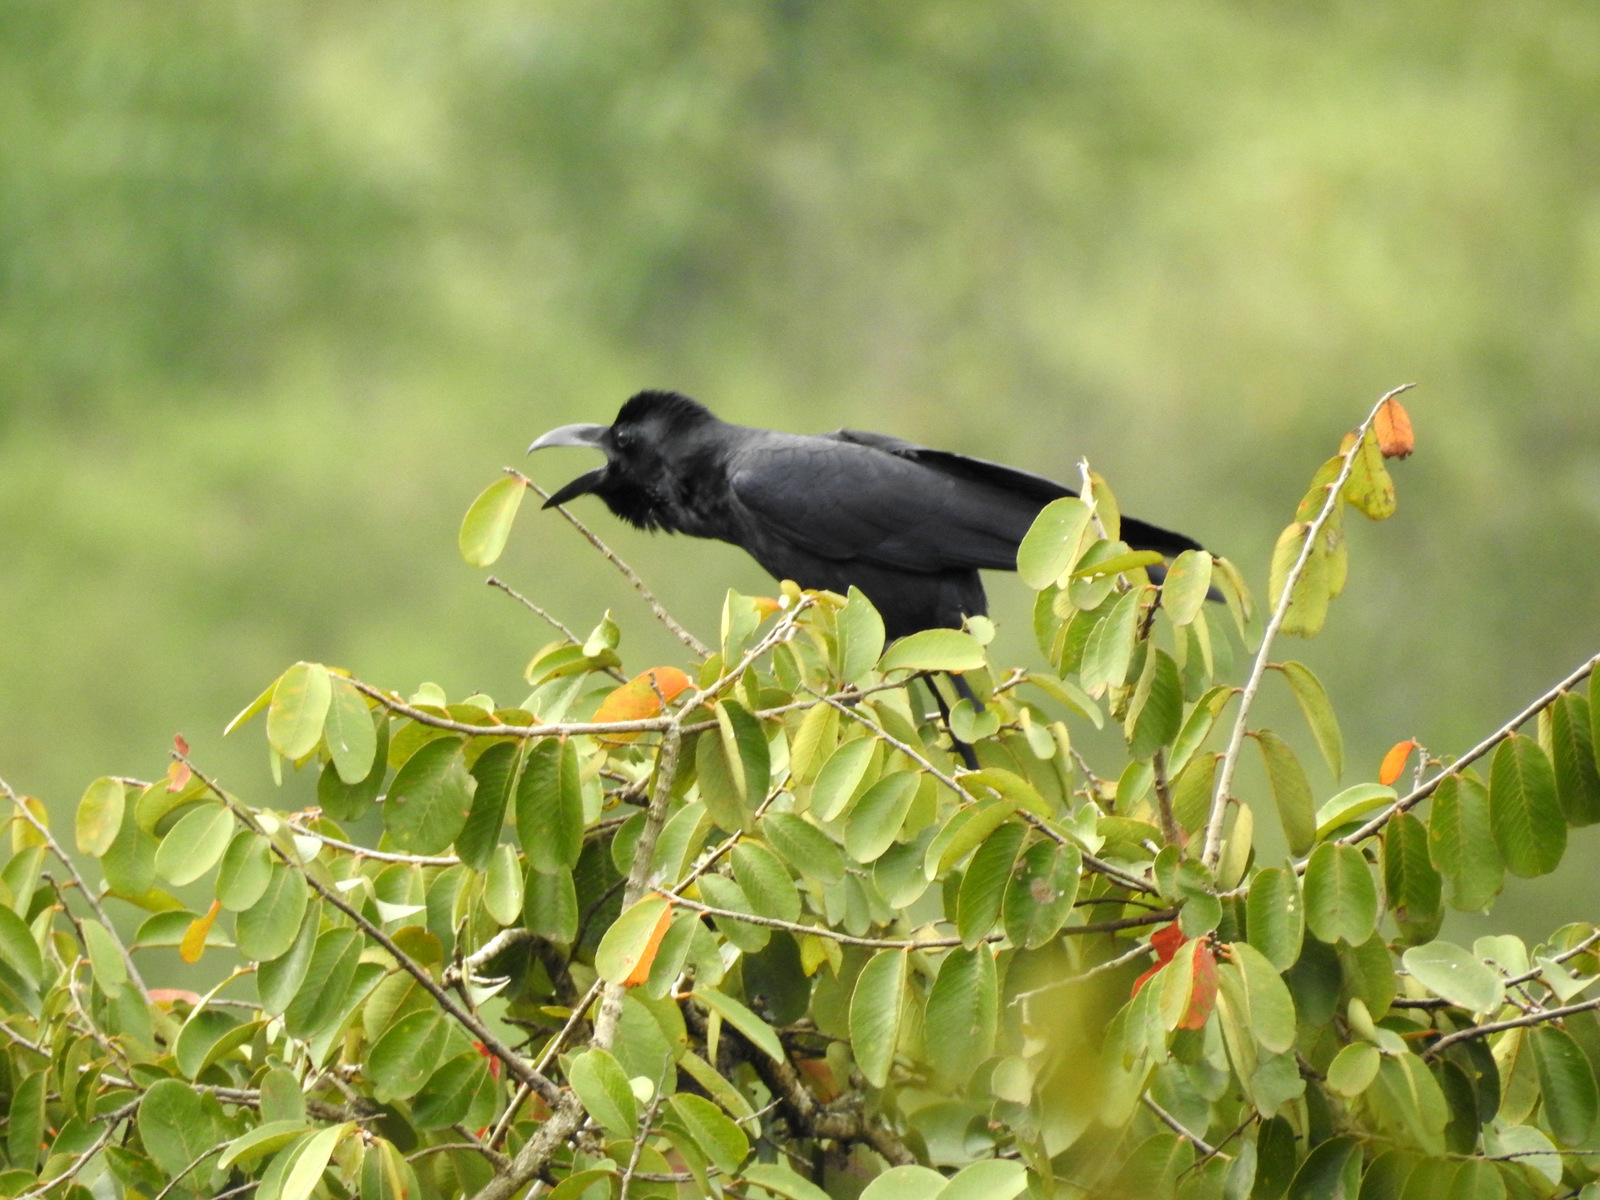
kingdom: Animalia
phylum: Chordata
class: Aves
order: Passeriformes
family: Corvidae
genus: Corvus
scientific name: Corvus macrorhynchos
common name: Large-billed crow
